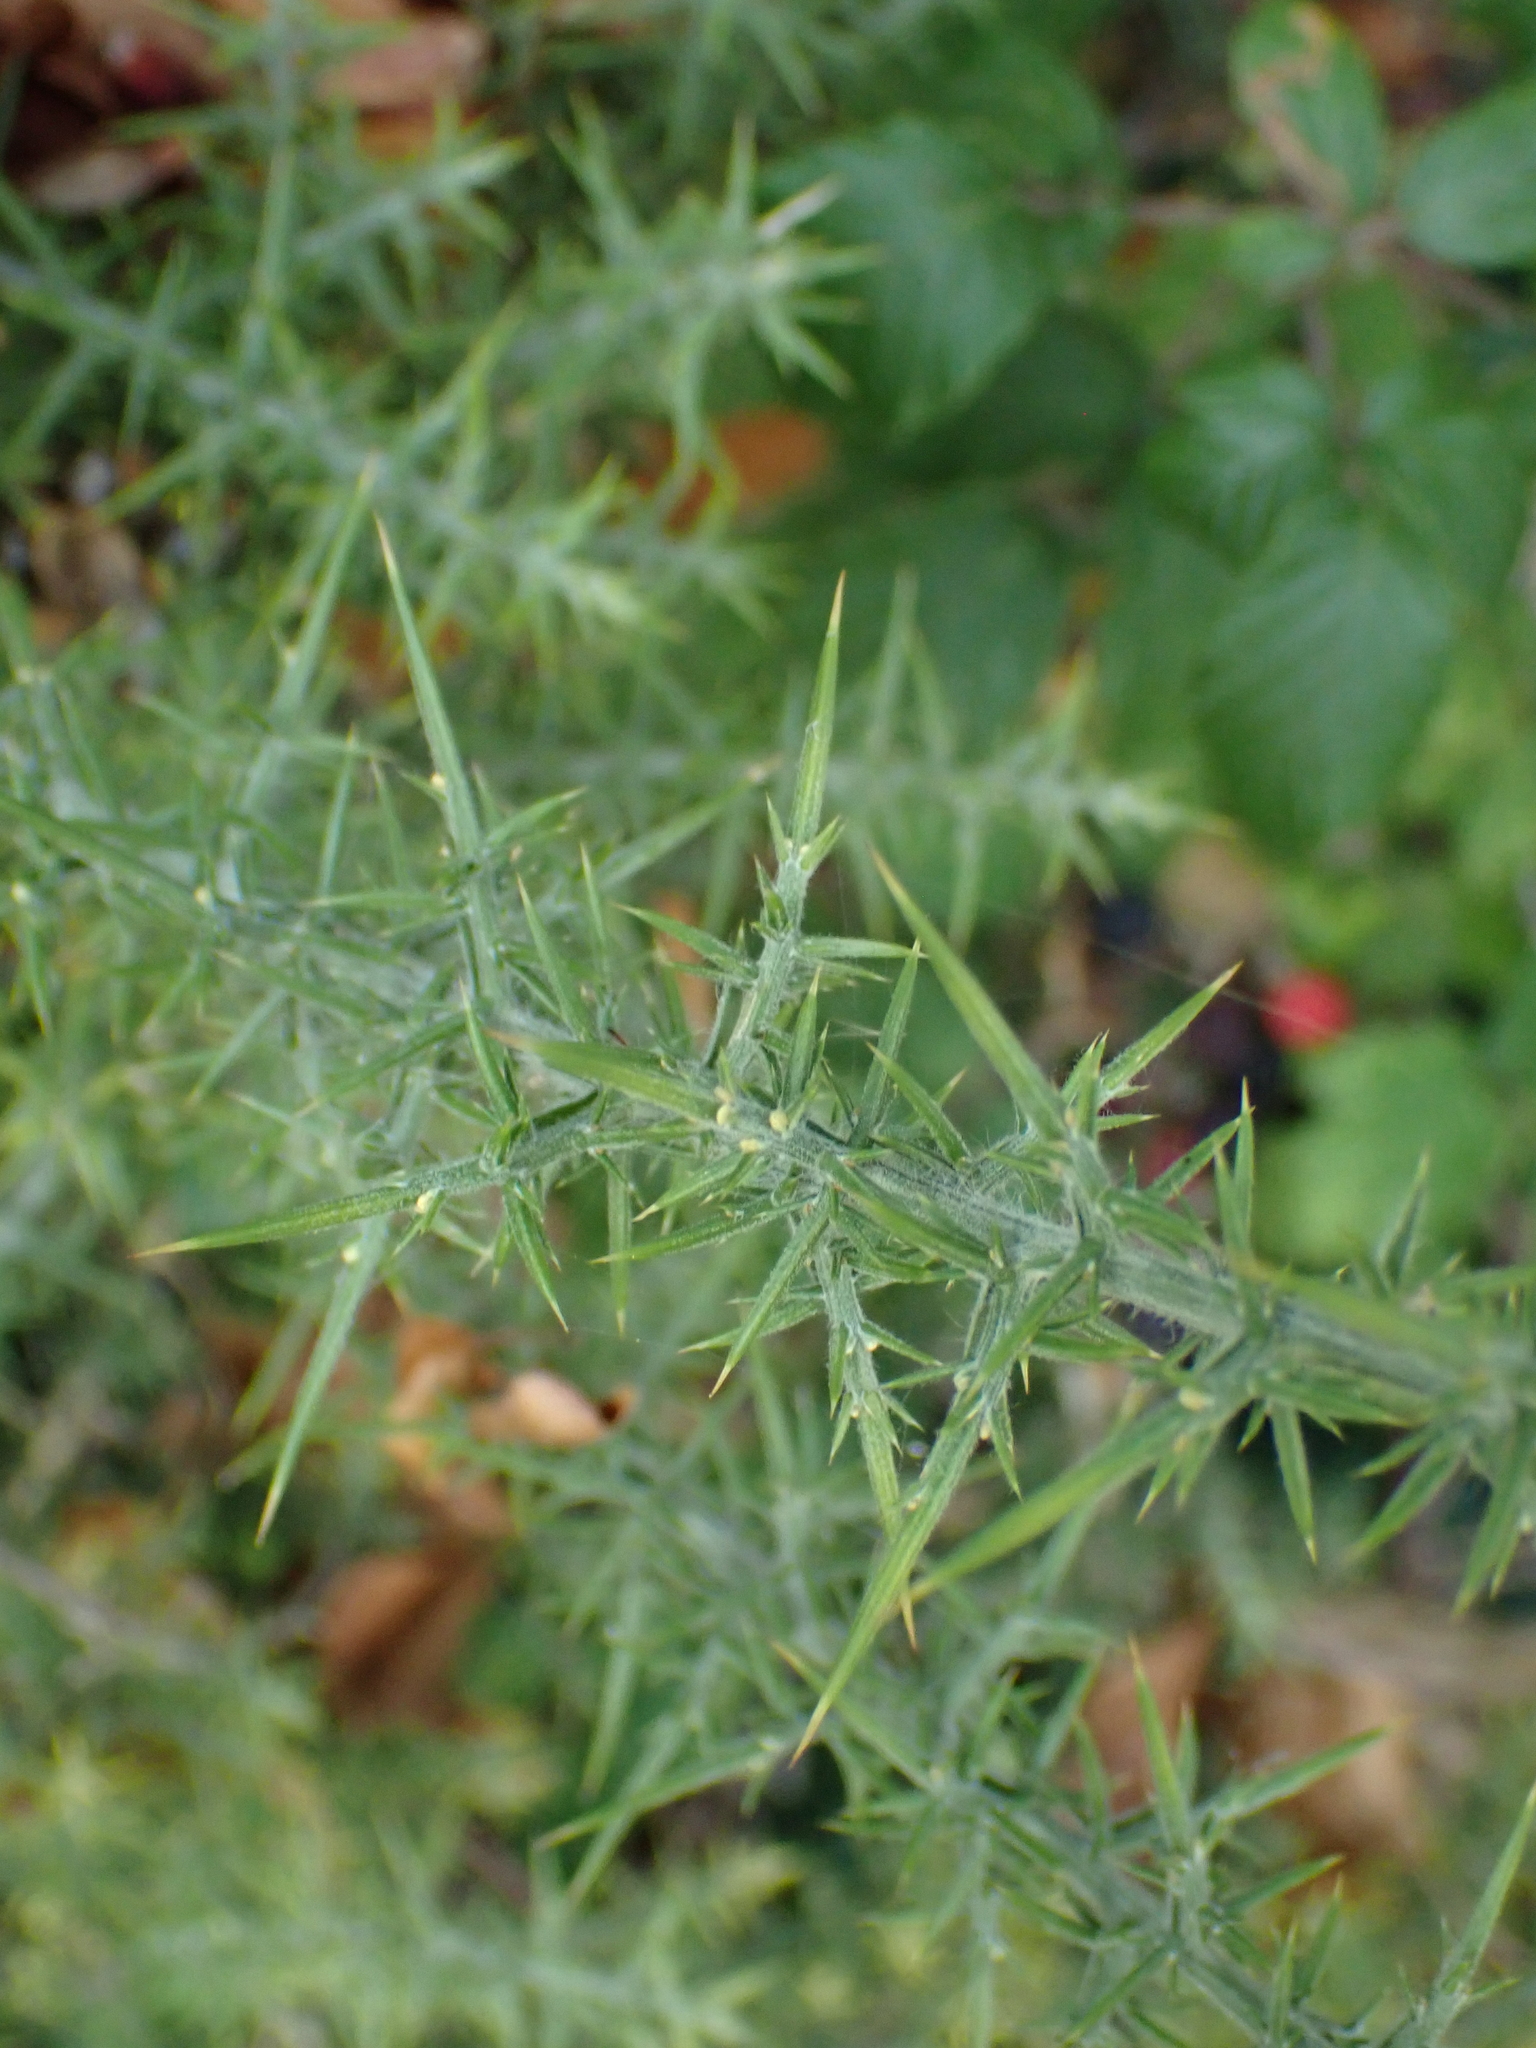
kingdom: Plantae
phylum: Tracheophyta
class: Magnoliopsida
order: Fabales
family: Fabaceae
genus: Ulex
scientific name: Ulex europaeus
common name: Common gorse
